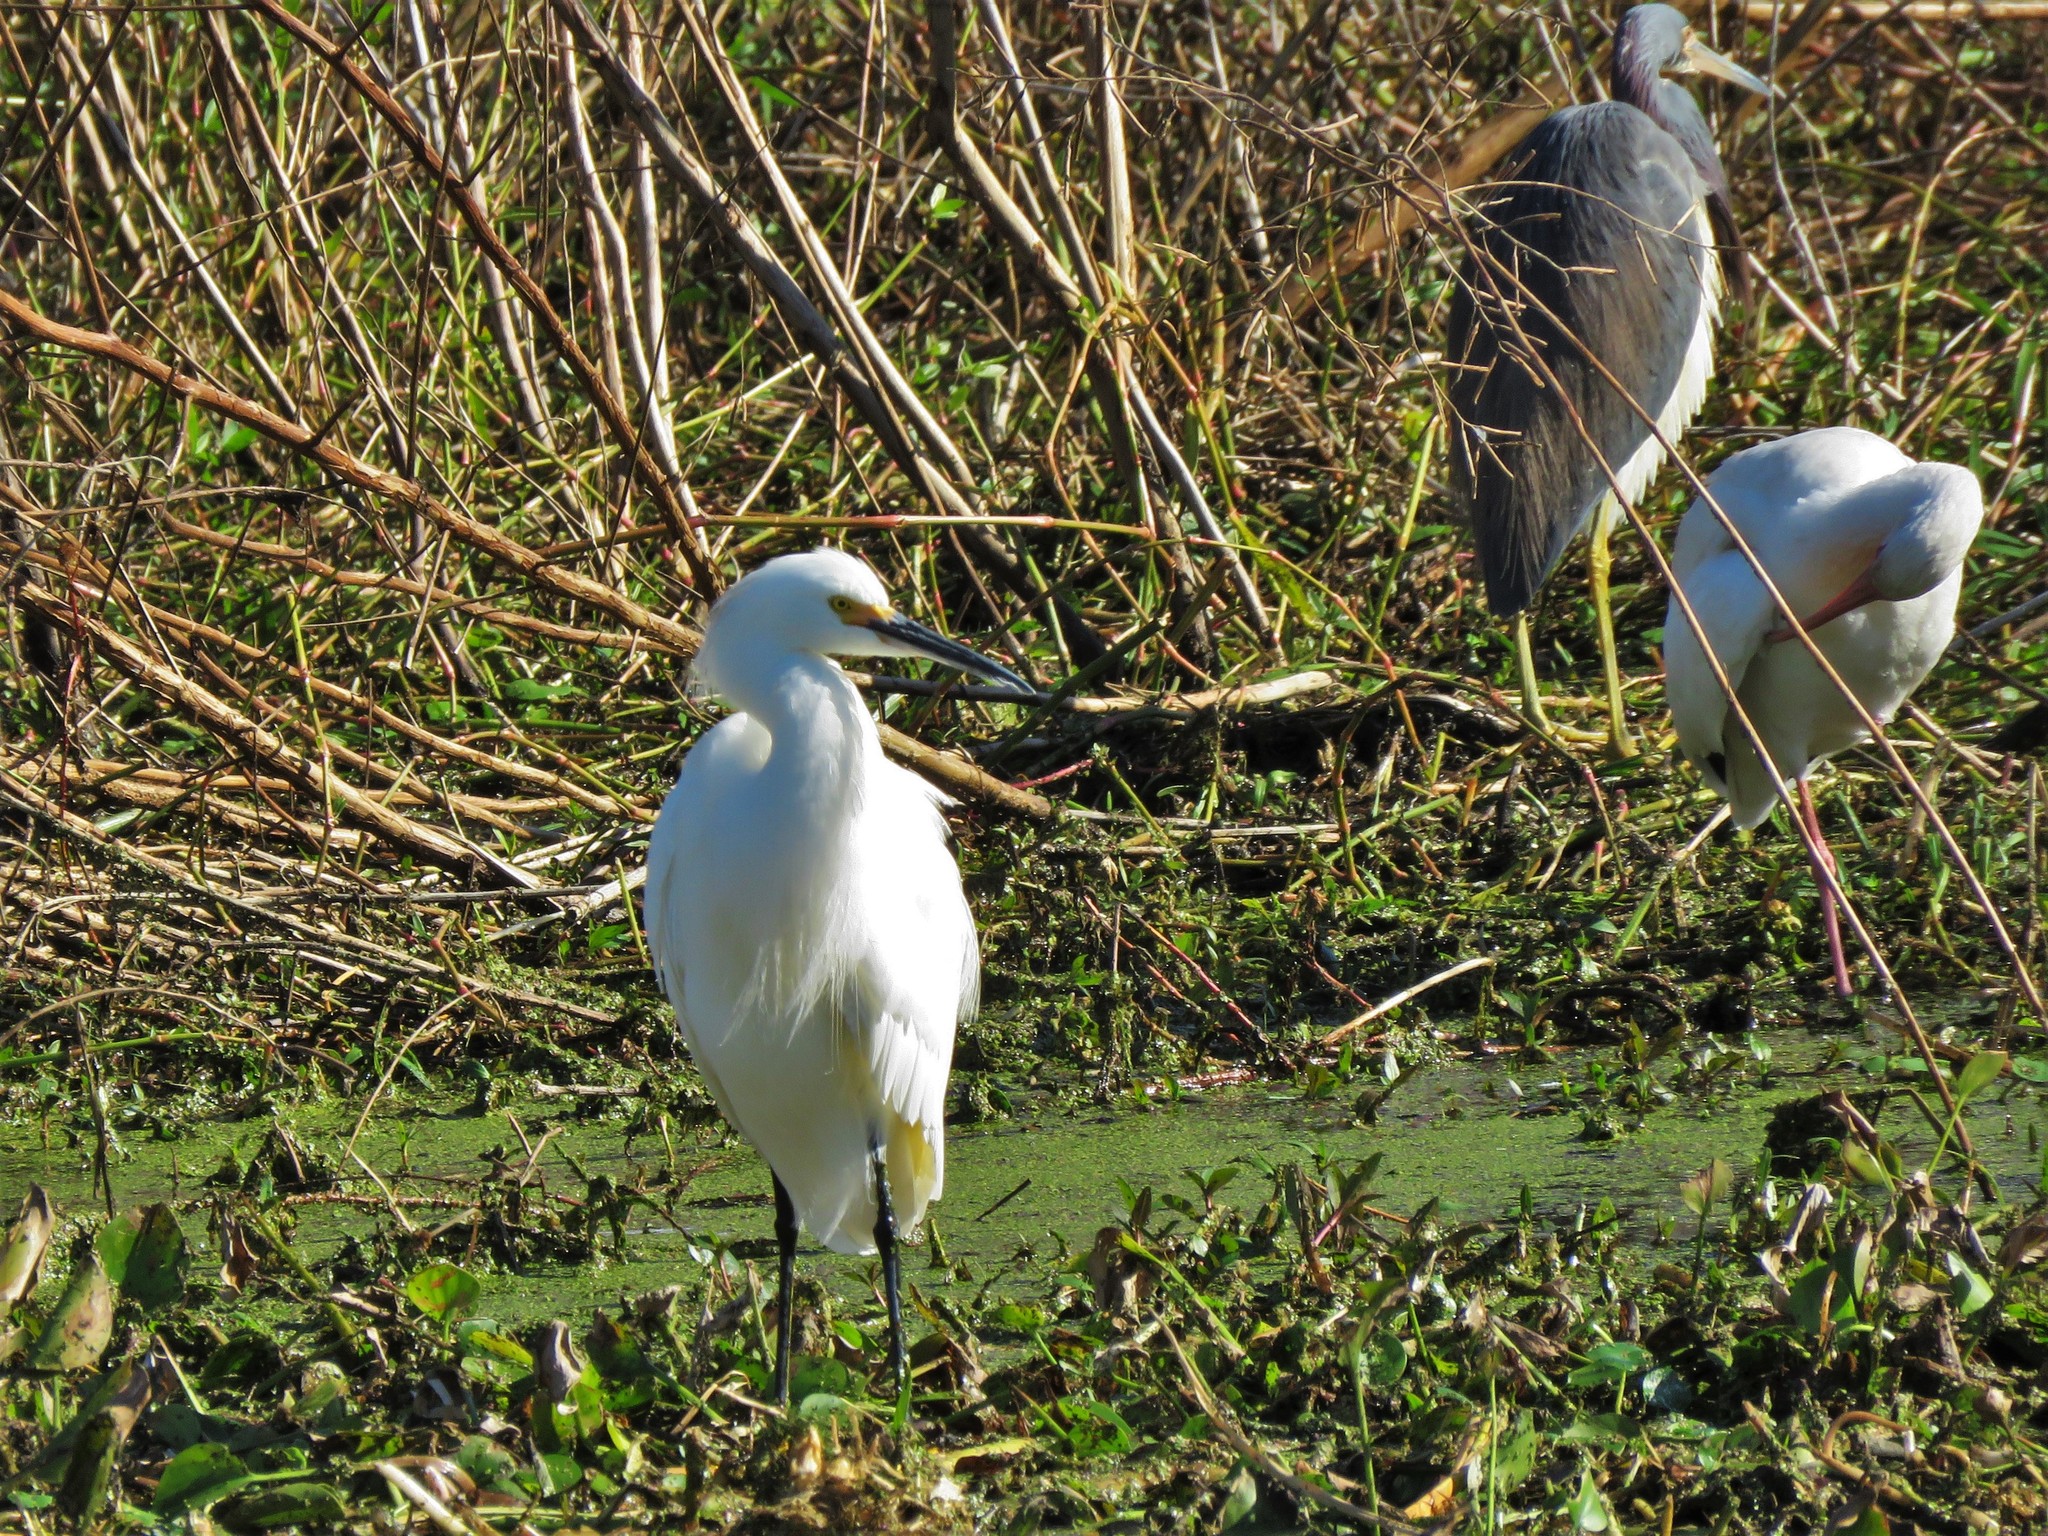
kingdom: Animalia
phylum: Chordata
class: Aves
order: Pelecaniformes
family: Ardeidae
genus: Egretta
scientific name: Egretta thula
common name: Snowy egret
